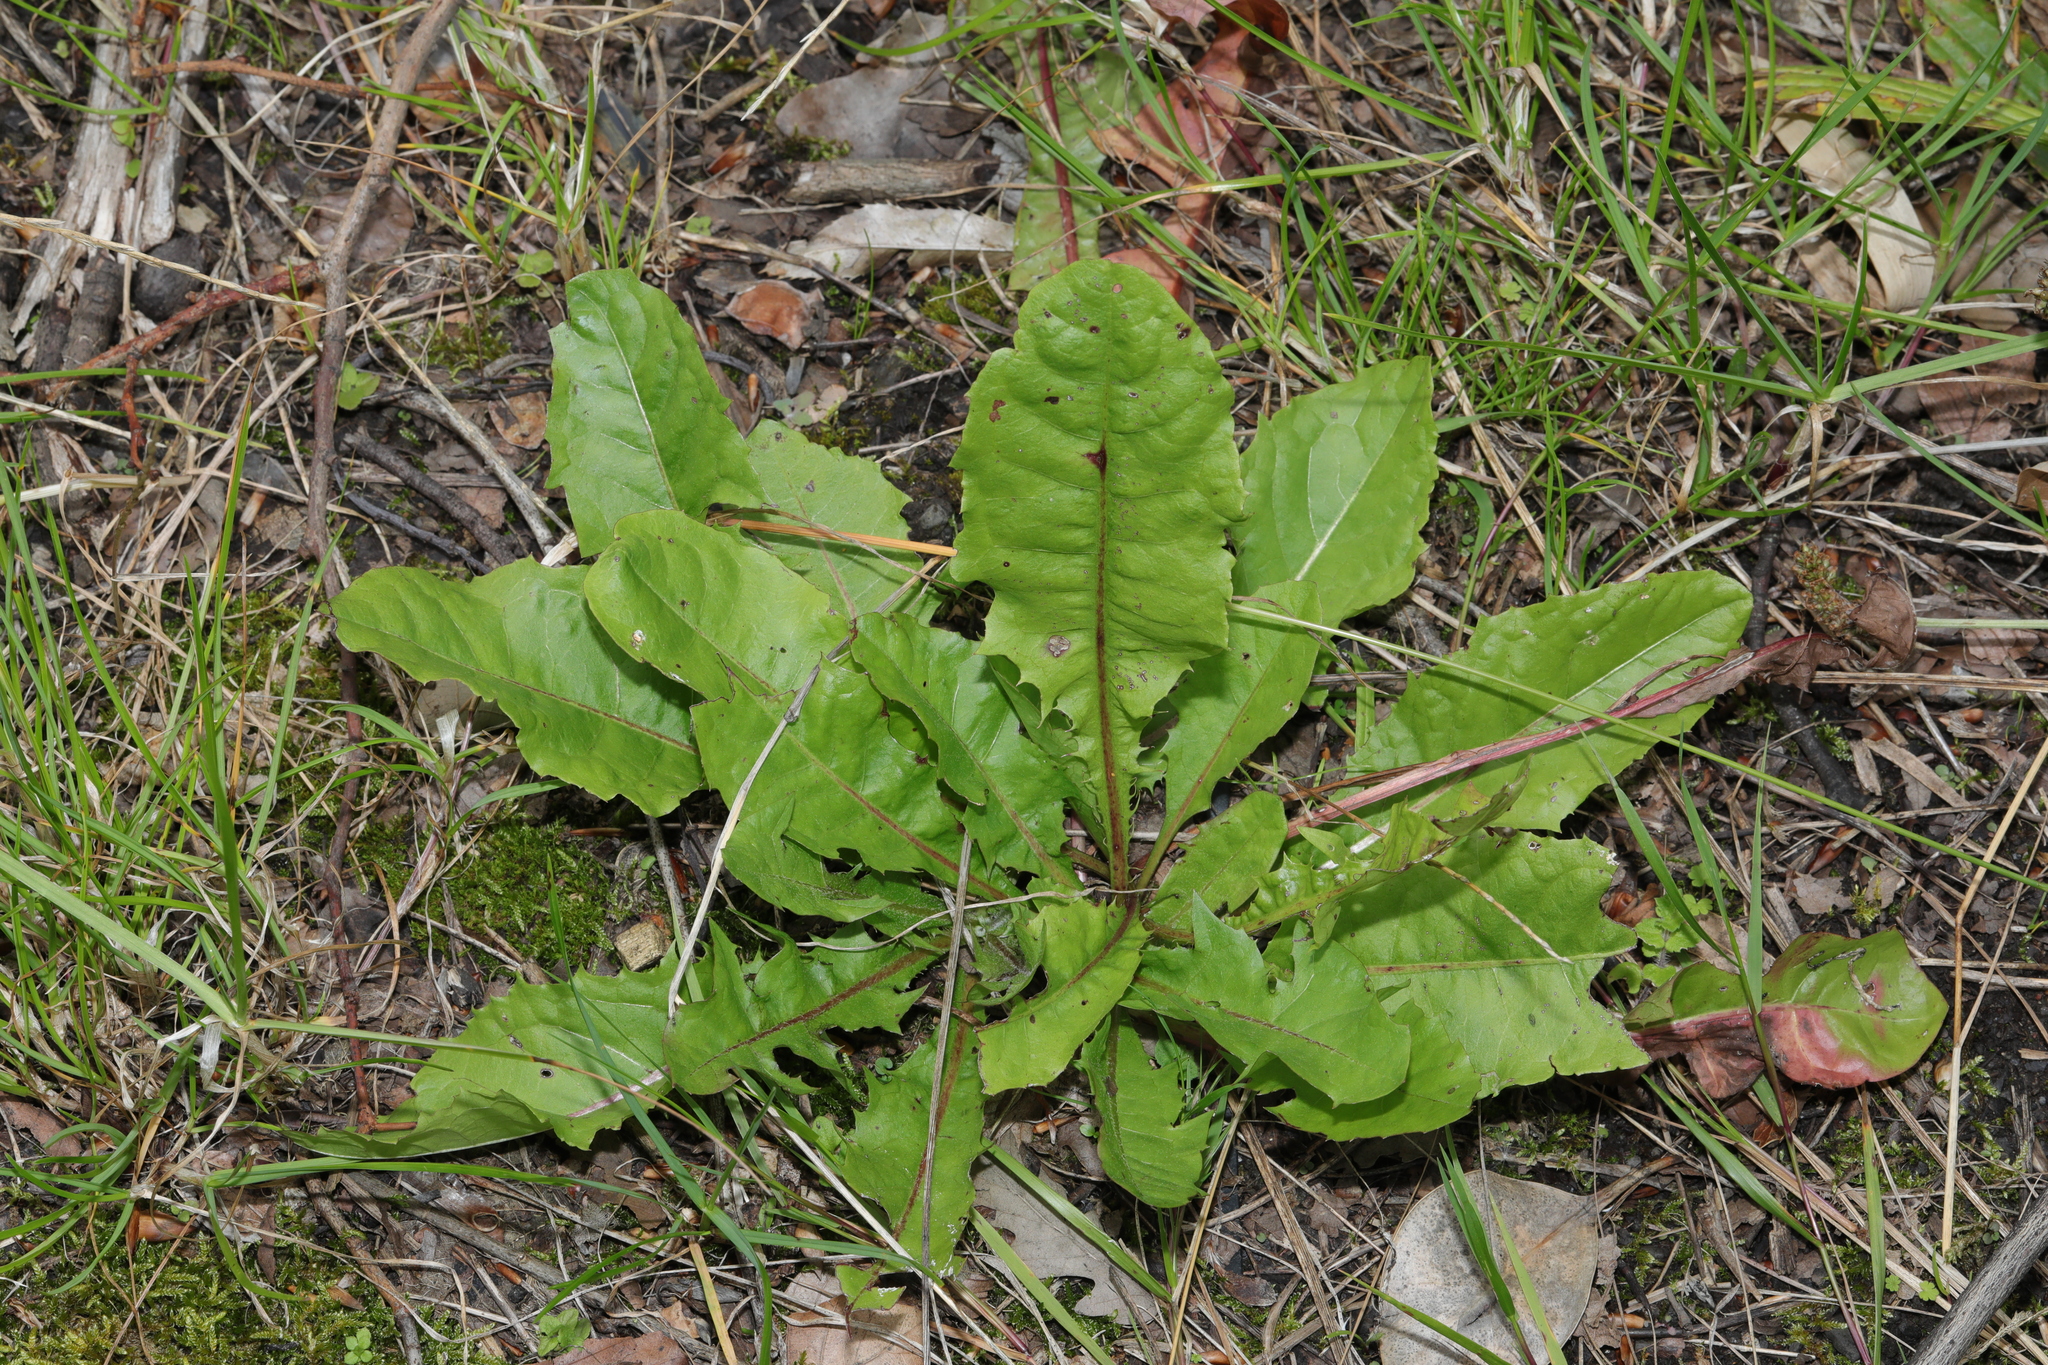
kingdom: Plantae
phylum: Tracheophyta
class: Magnoliopsida
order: Asterales
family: Asteraceae
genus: Taraxacum
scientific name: Taraxacum officinale
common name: Common dandelion
